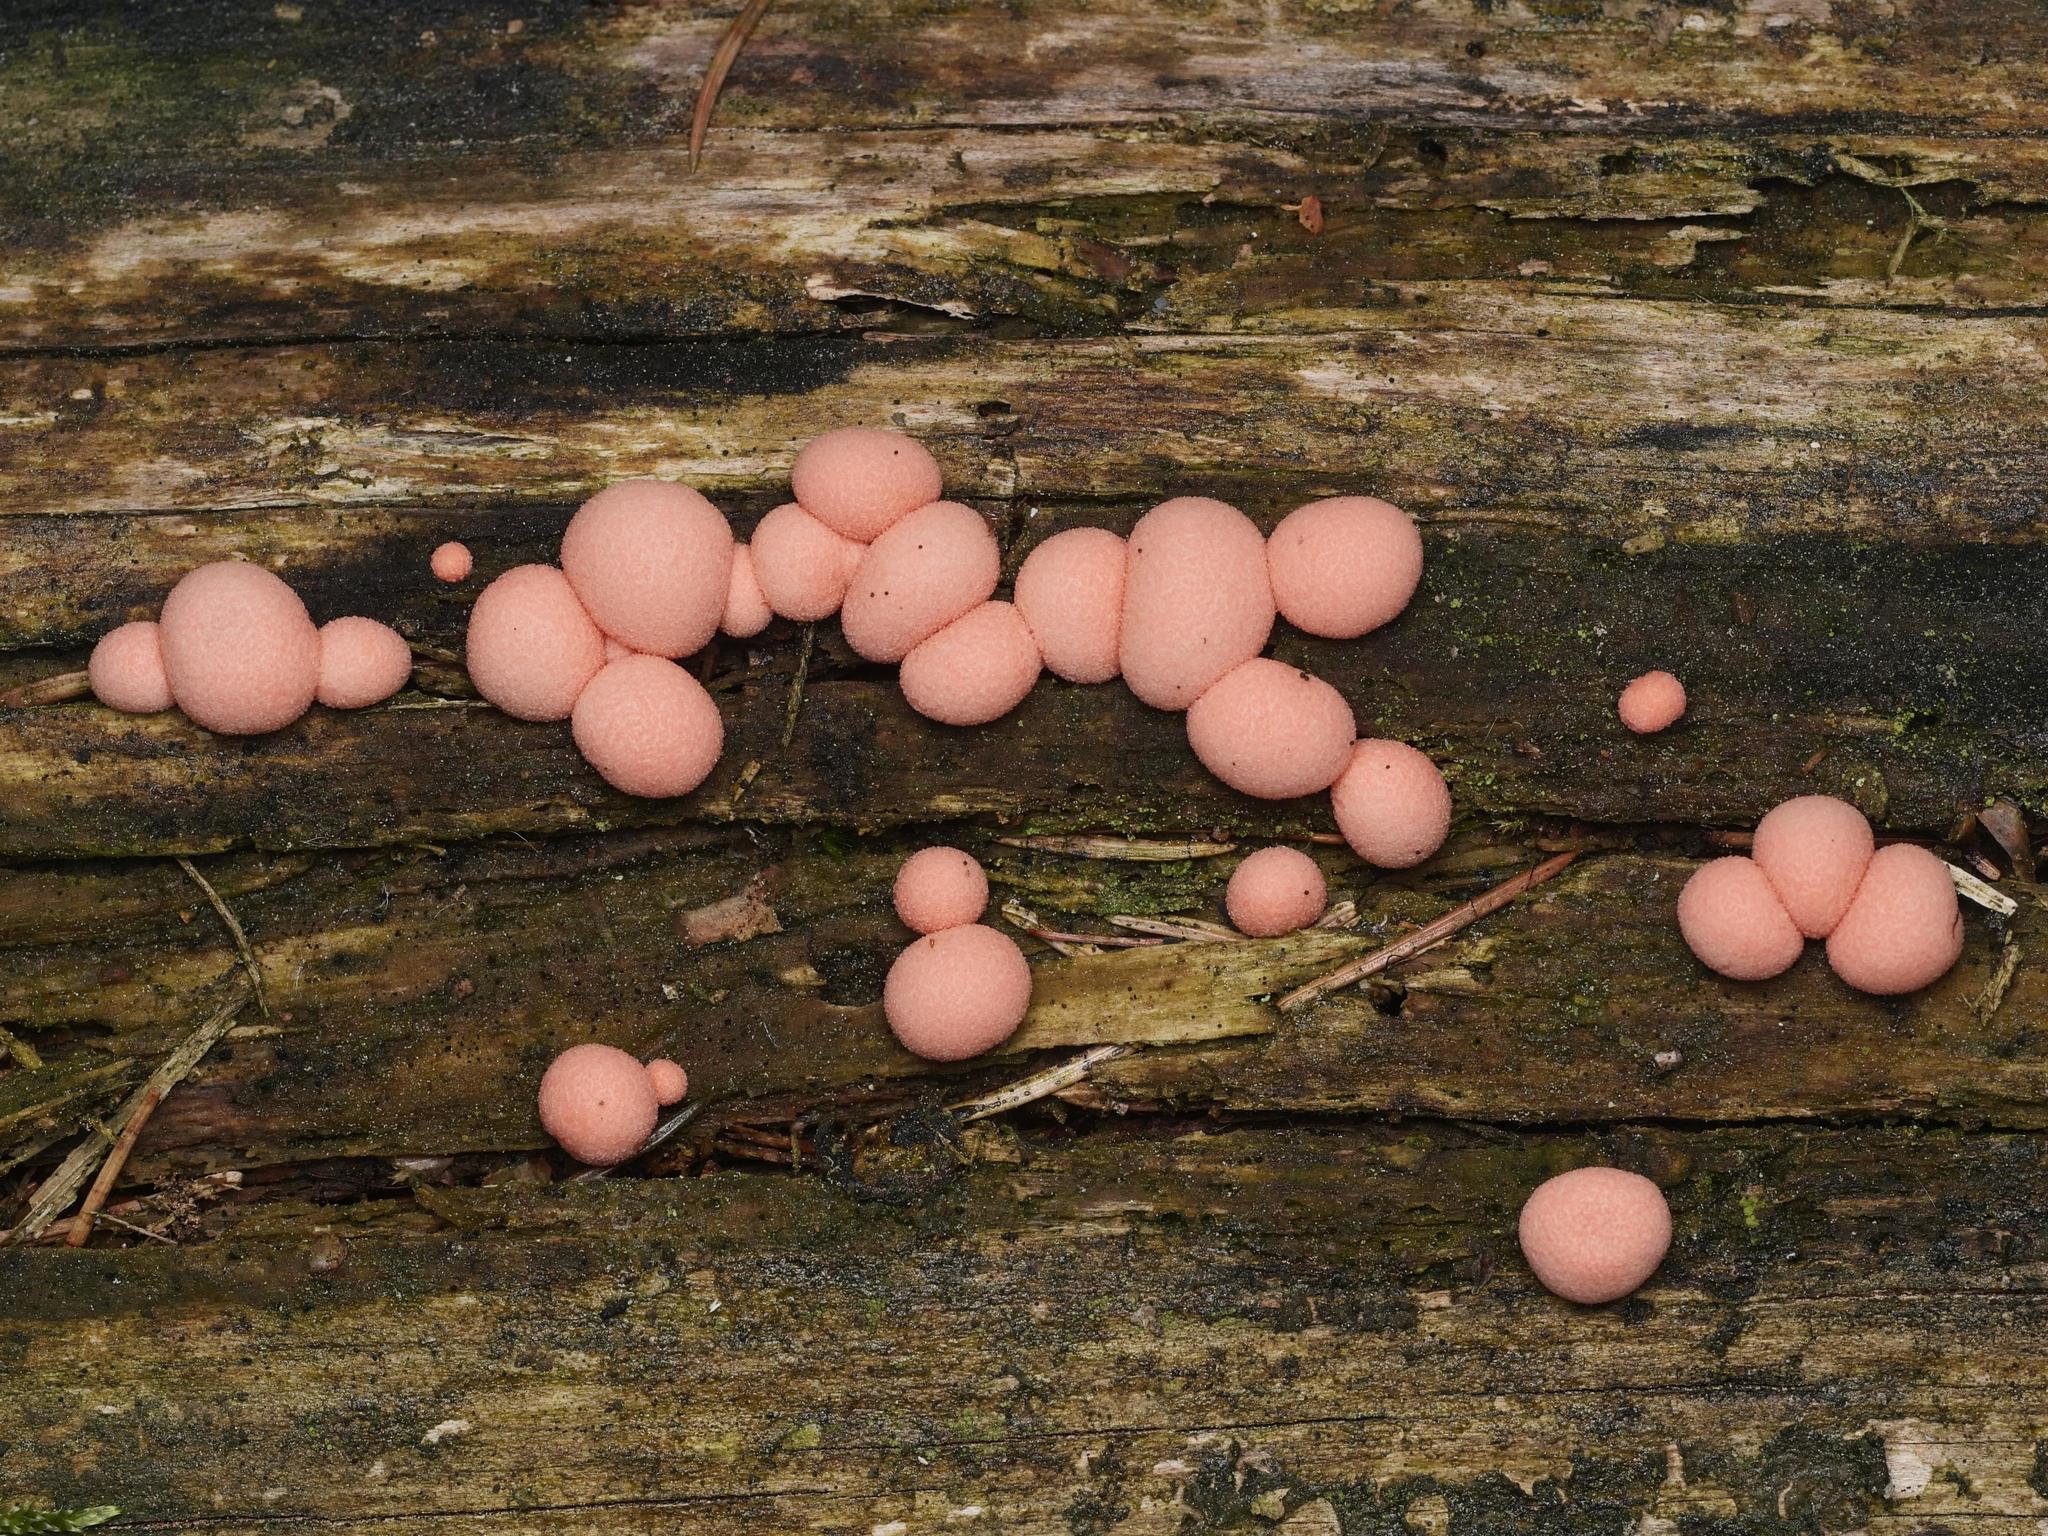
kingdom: Protozoa
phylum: Mycetozoa
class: Myxomycetes
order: Cribrariales
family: Tubiferaceae
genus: Lycogala
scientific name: Lycogala epidendrum
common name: Wolf's milk
